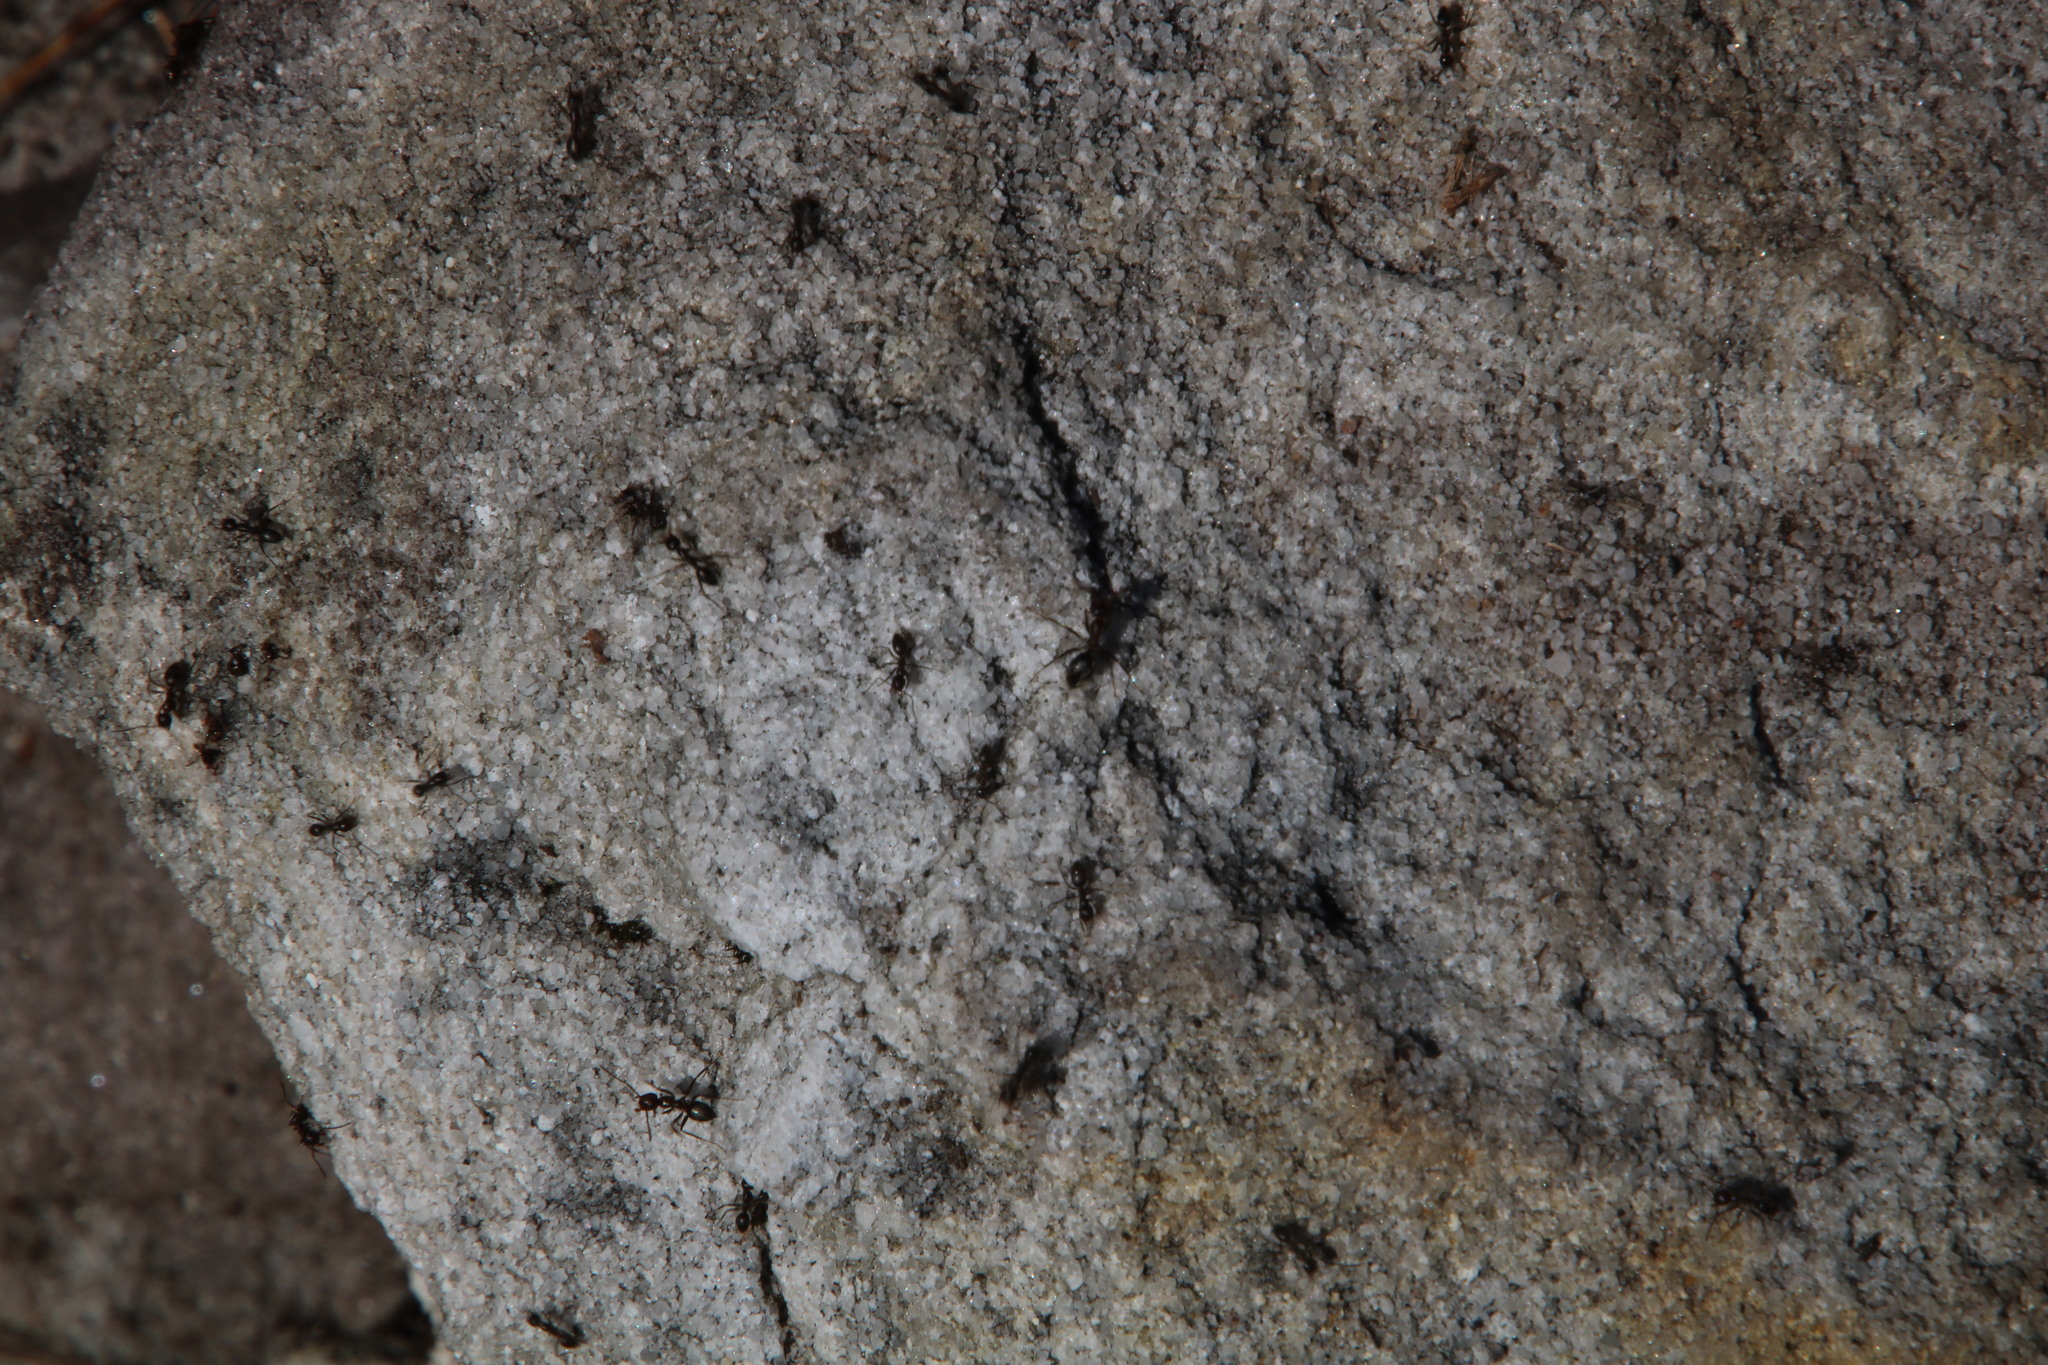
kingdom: Animalia
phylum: Arthropoda
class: Insecta
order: Hymenoptera
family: Formicidae
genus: Anoplolepis
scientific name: Anoplolepis steingroeveri
